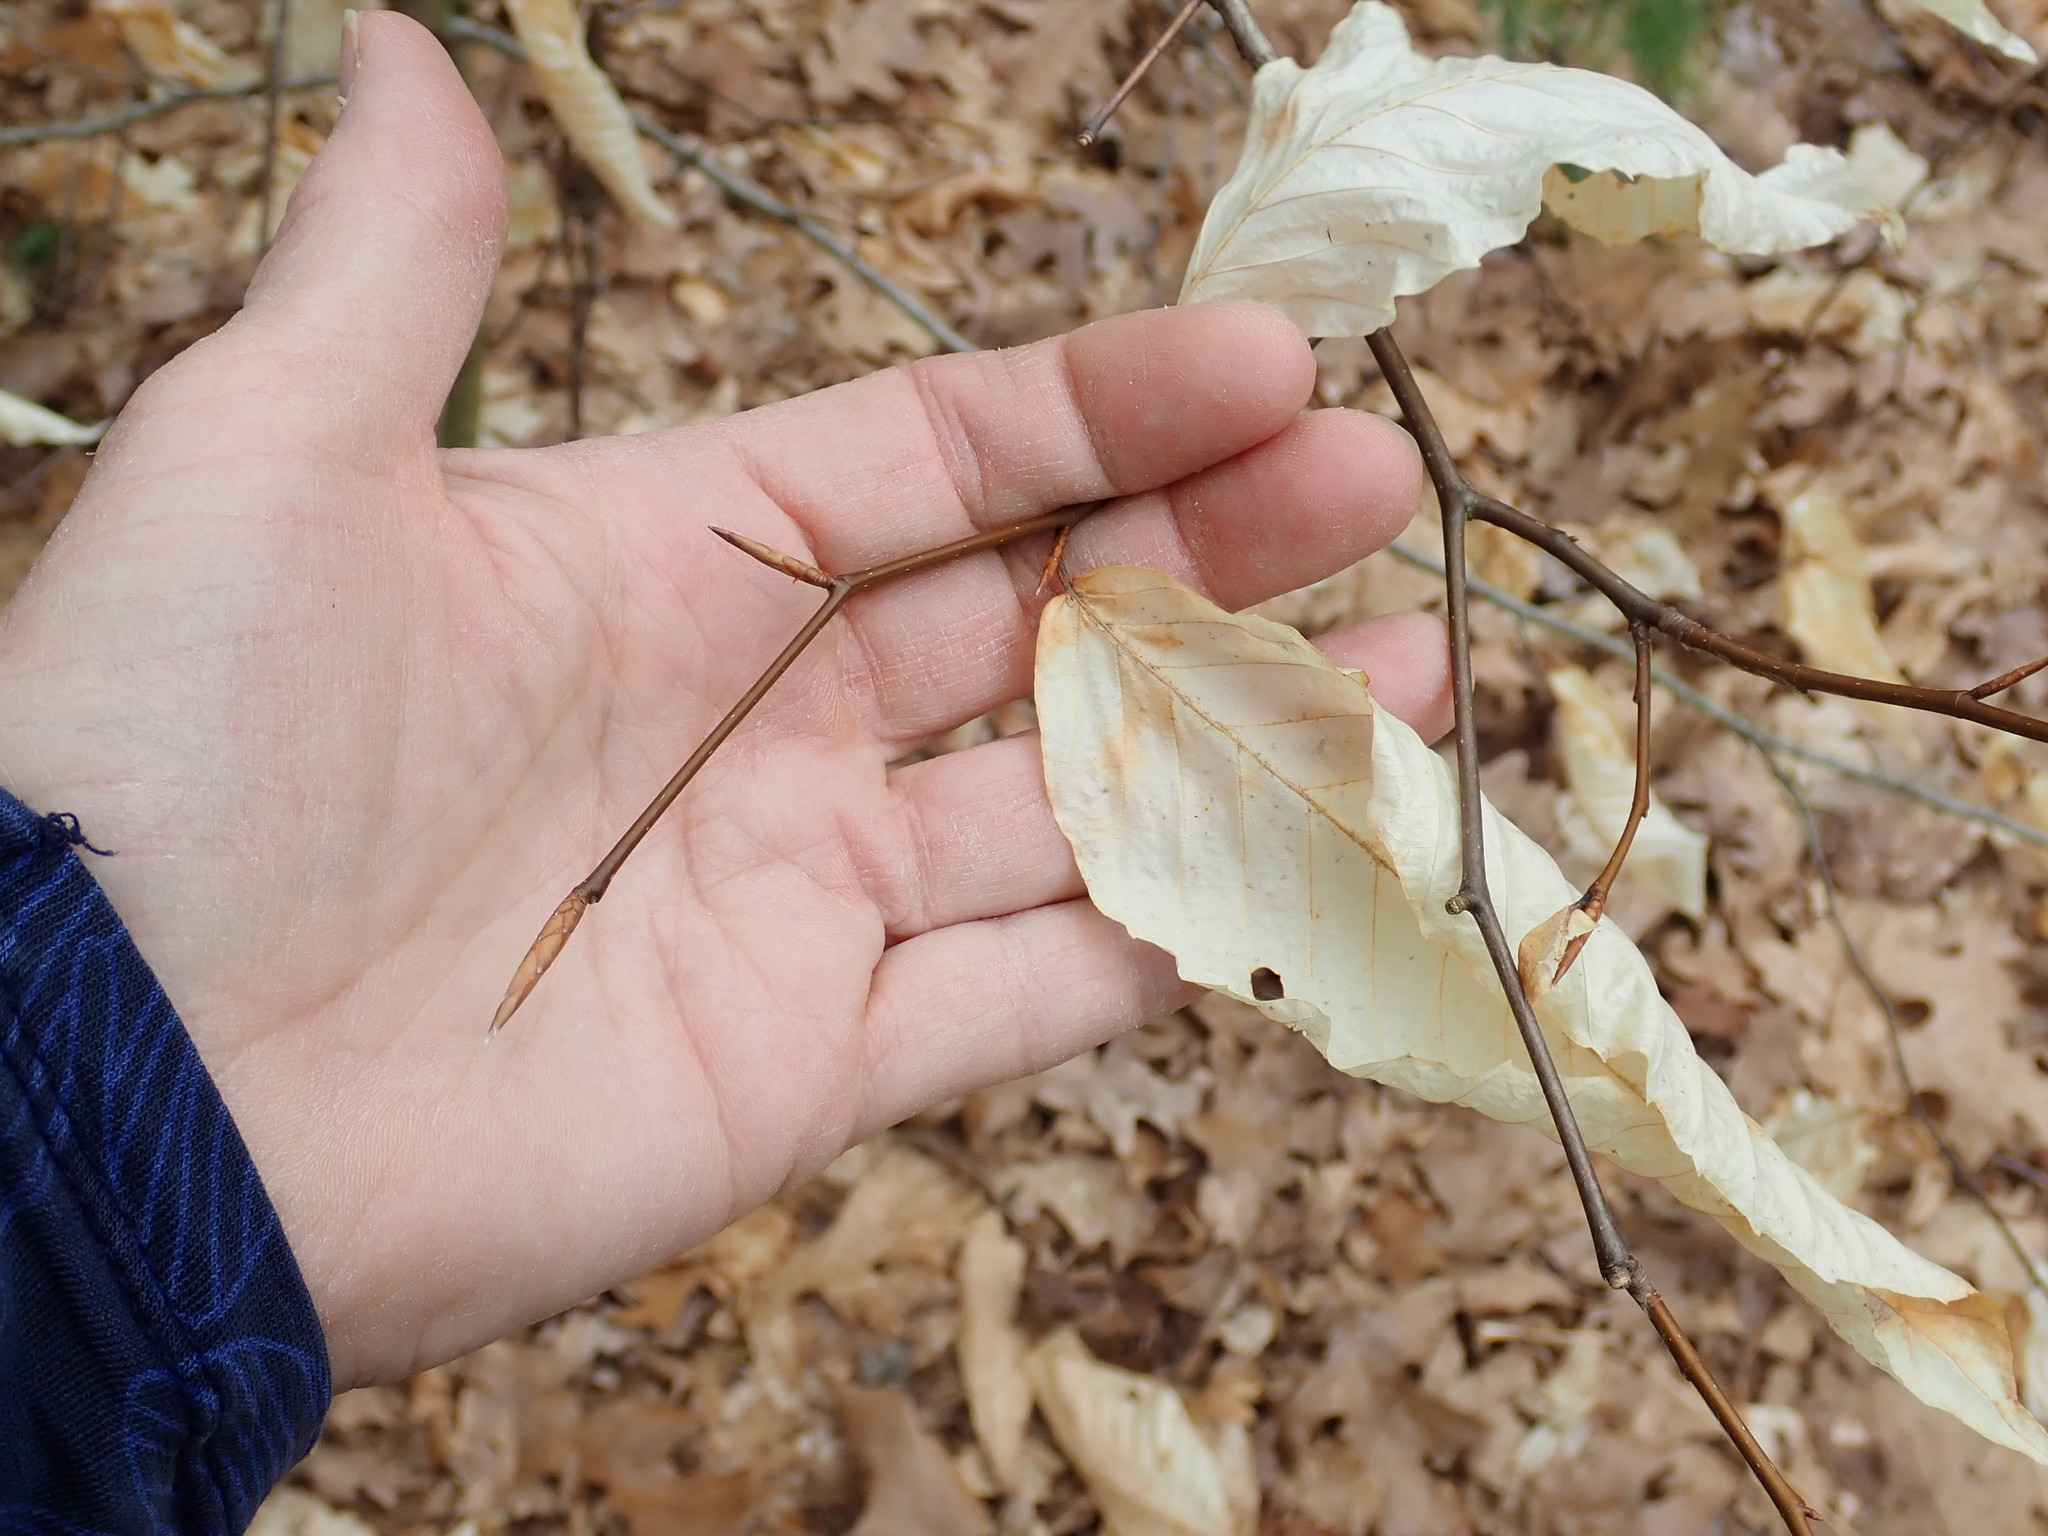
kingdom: Plantae
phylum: Tracheophyta
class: Magnoliopsida
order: Fagales
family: Fagaceae
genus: Fagus
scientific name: Fagus grandifolia
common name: American beech
